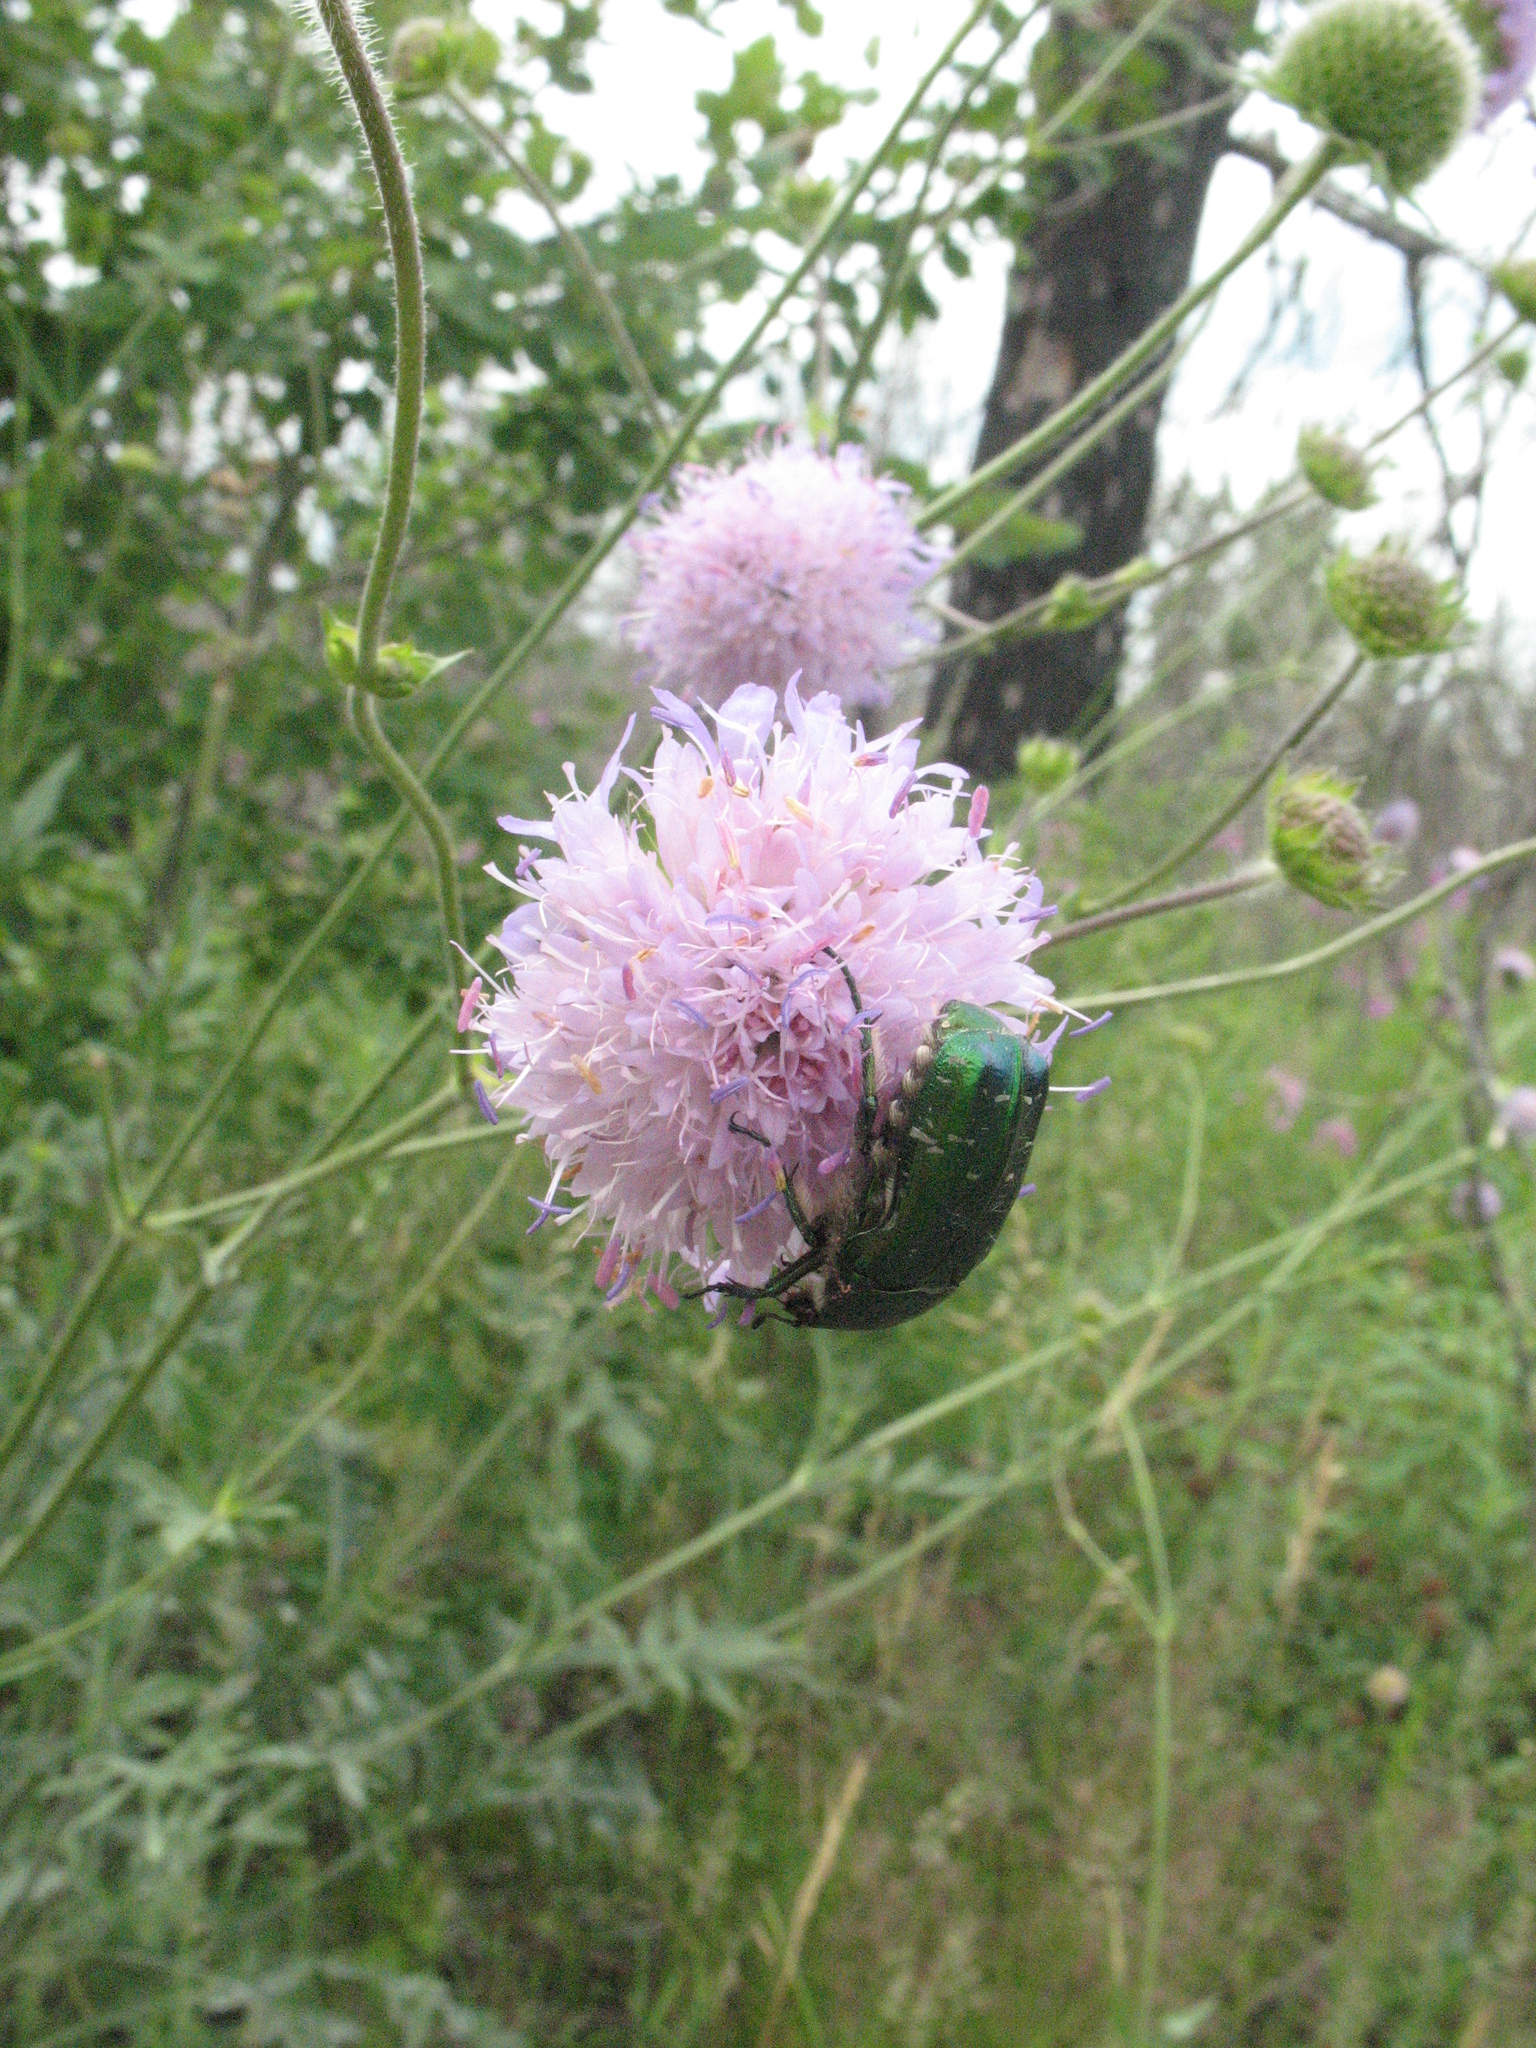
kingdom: Plantae
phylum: Tracheophyta
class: Magnoliopsida
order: Dipsacales
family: Caprifoliaceae
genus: Knautia
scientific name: Knautia arvensis
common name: Field scabiosa
